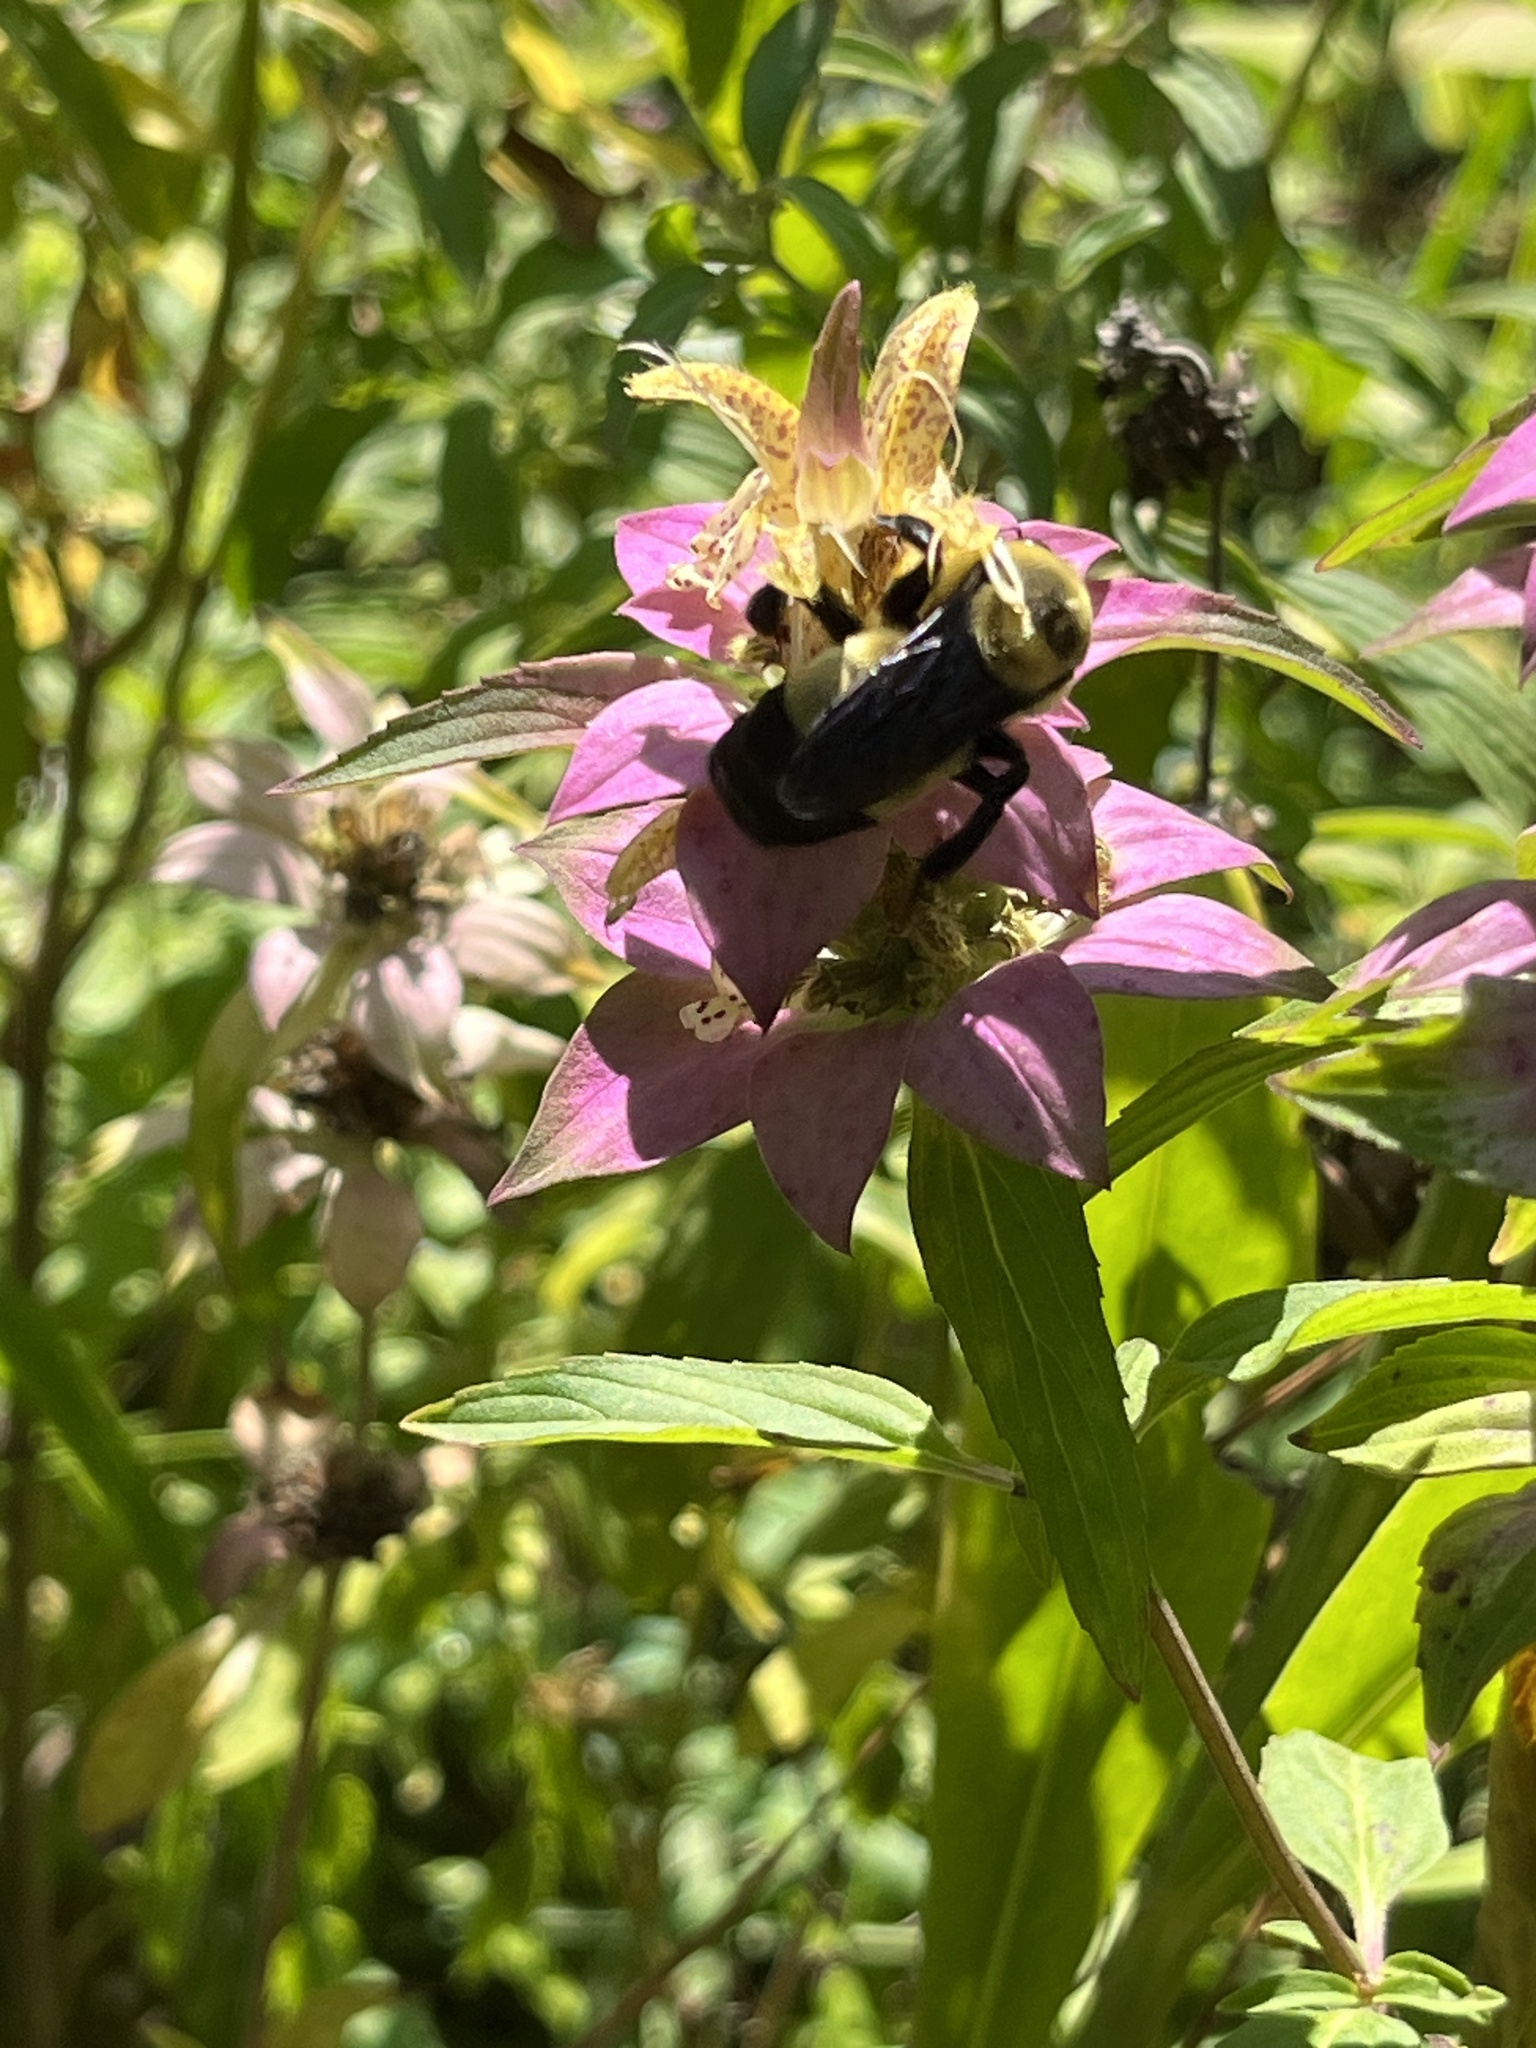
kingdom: Animalia
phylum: Arthropoda
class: Insecta
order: Hymenoptera
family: Apidae
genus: Bombus
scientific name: Bombus fraternus
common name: Southern plains bumble bee
